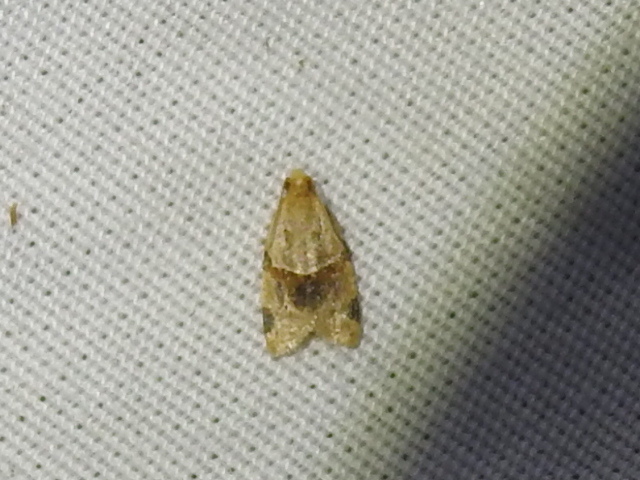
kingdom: Animalia
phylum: Arthropoda
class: Insecta
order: Lepidoptera
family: Tortricidae
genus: Clepsis
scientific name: Clepsis peritana
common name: Garden tortrix
